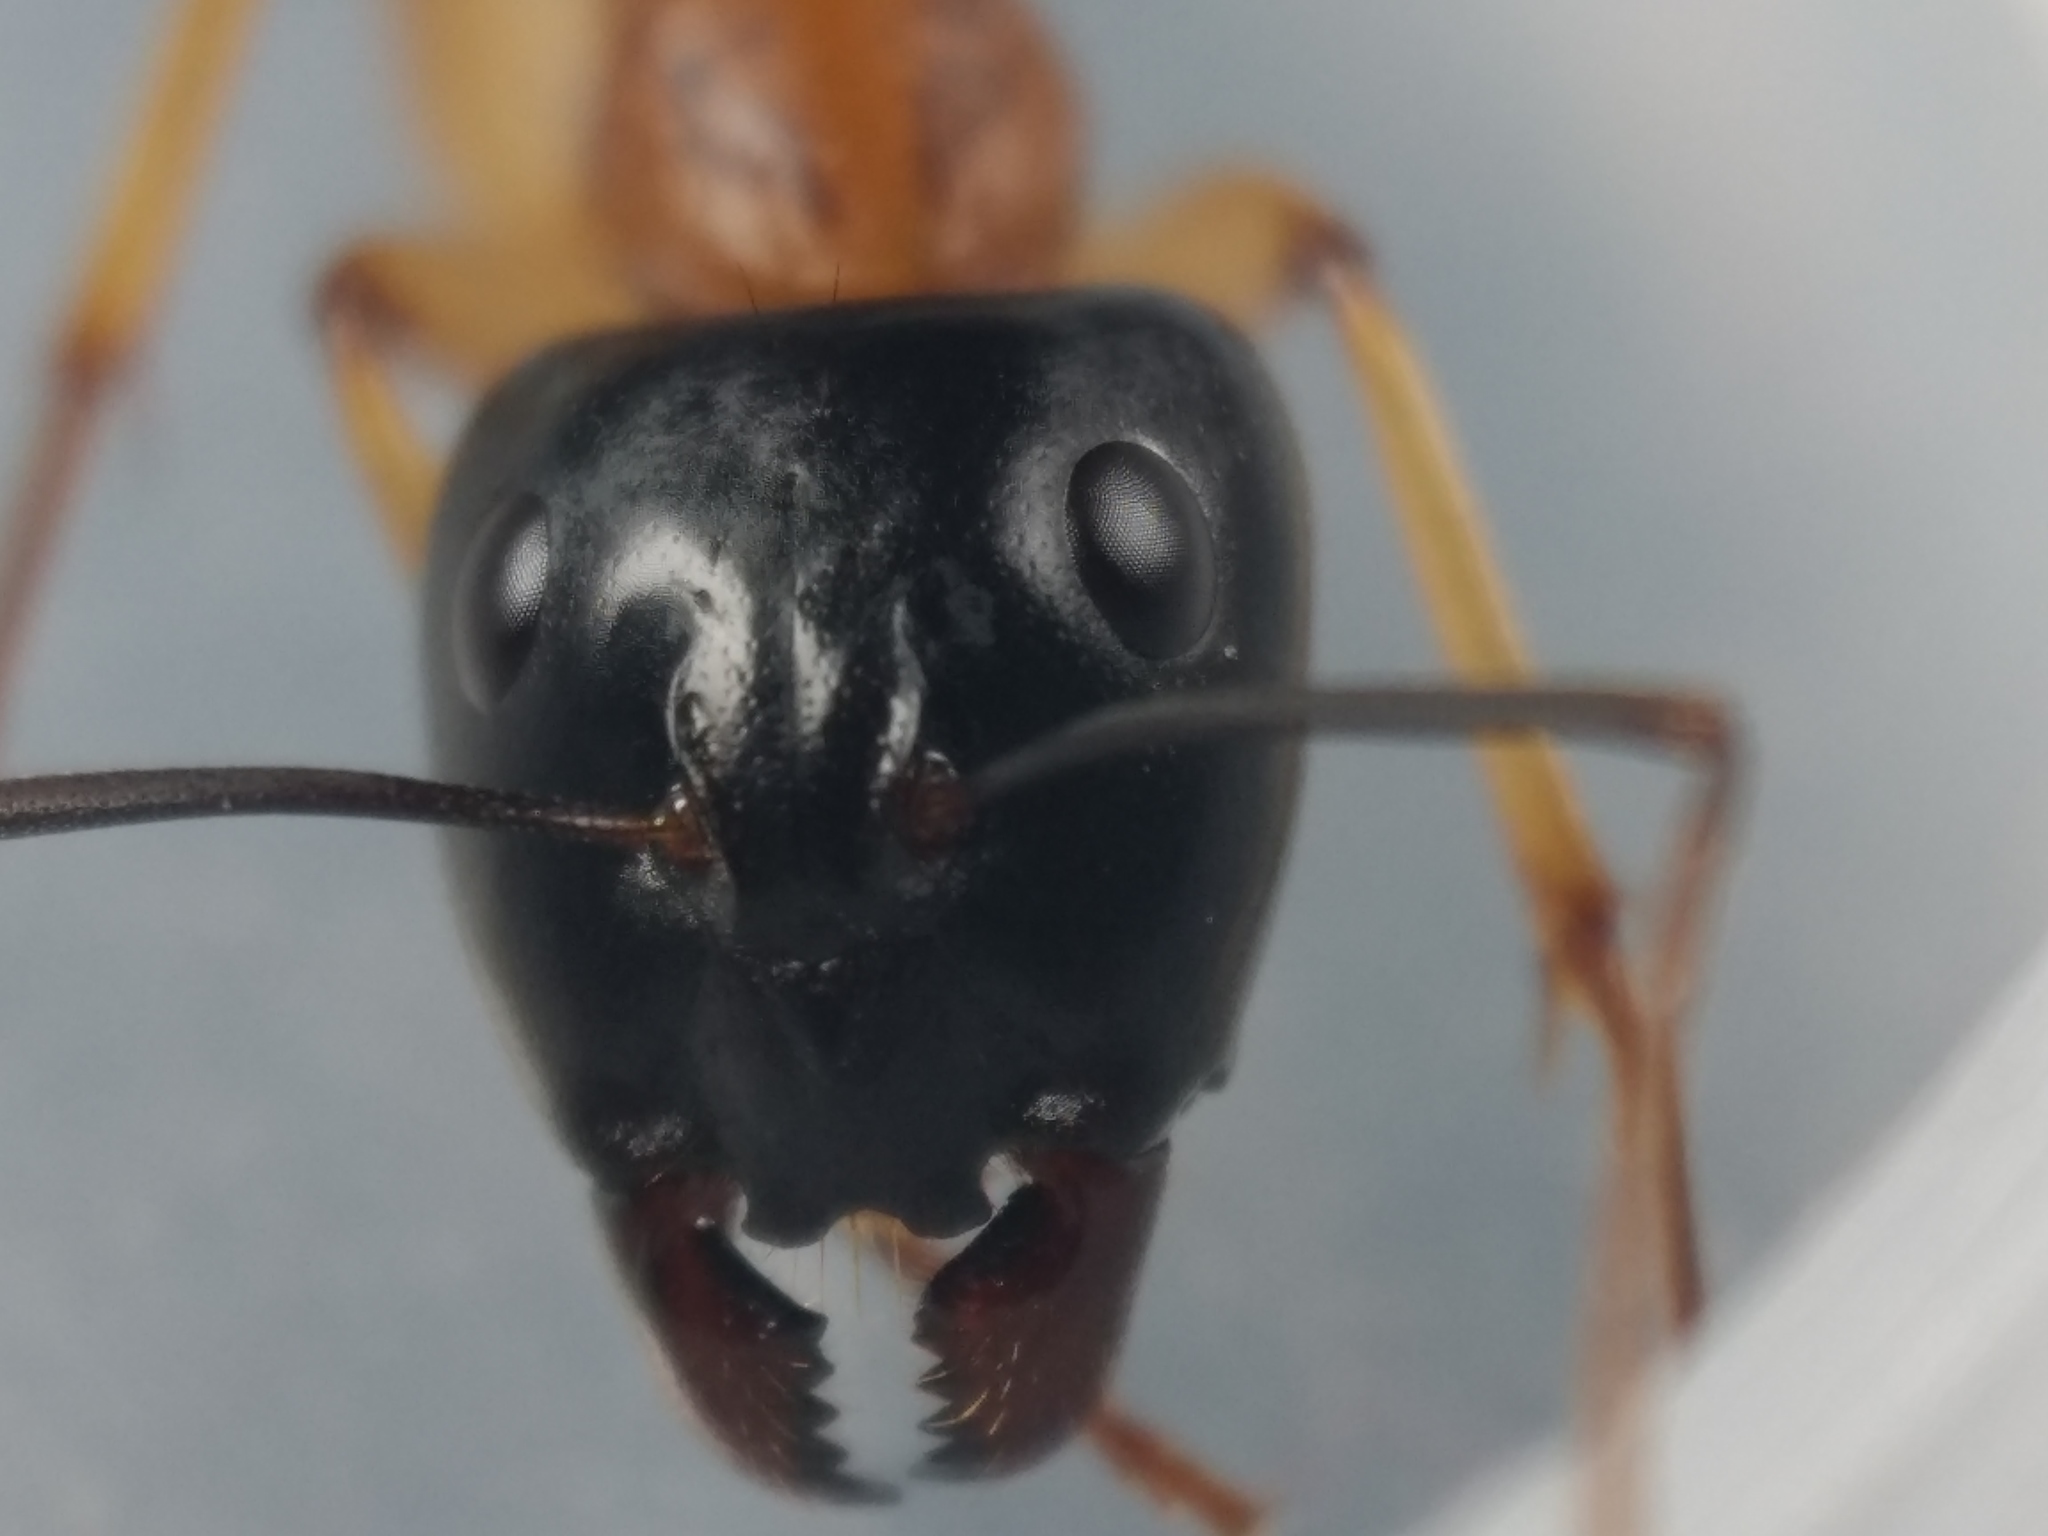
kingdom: Animalia
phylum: Arthropoda
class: Insecta
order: Hymenoptera
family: Formicidae
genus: Camponotus
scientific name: Camponotus consobrinus
